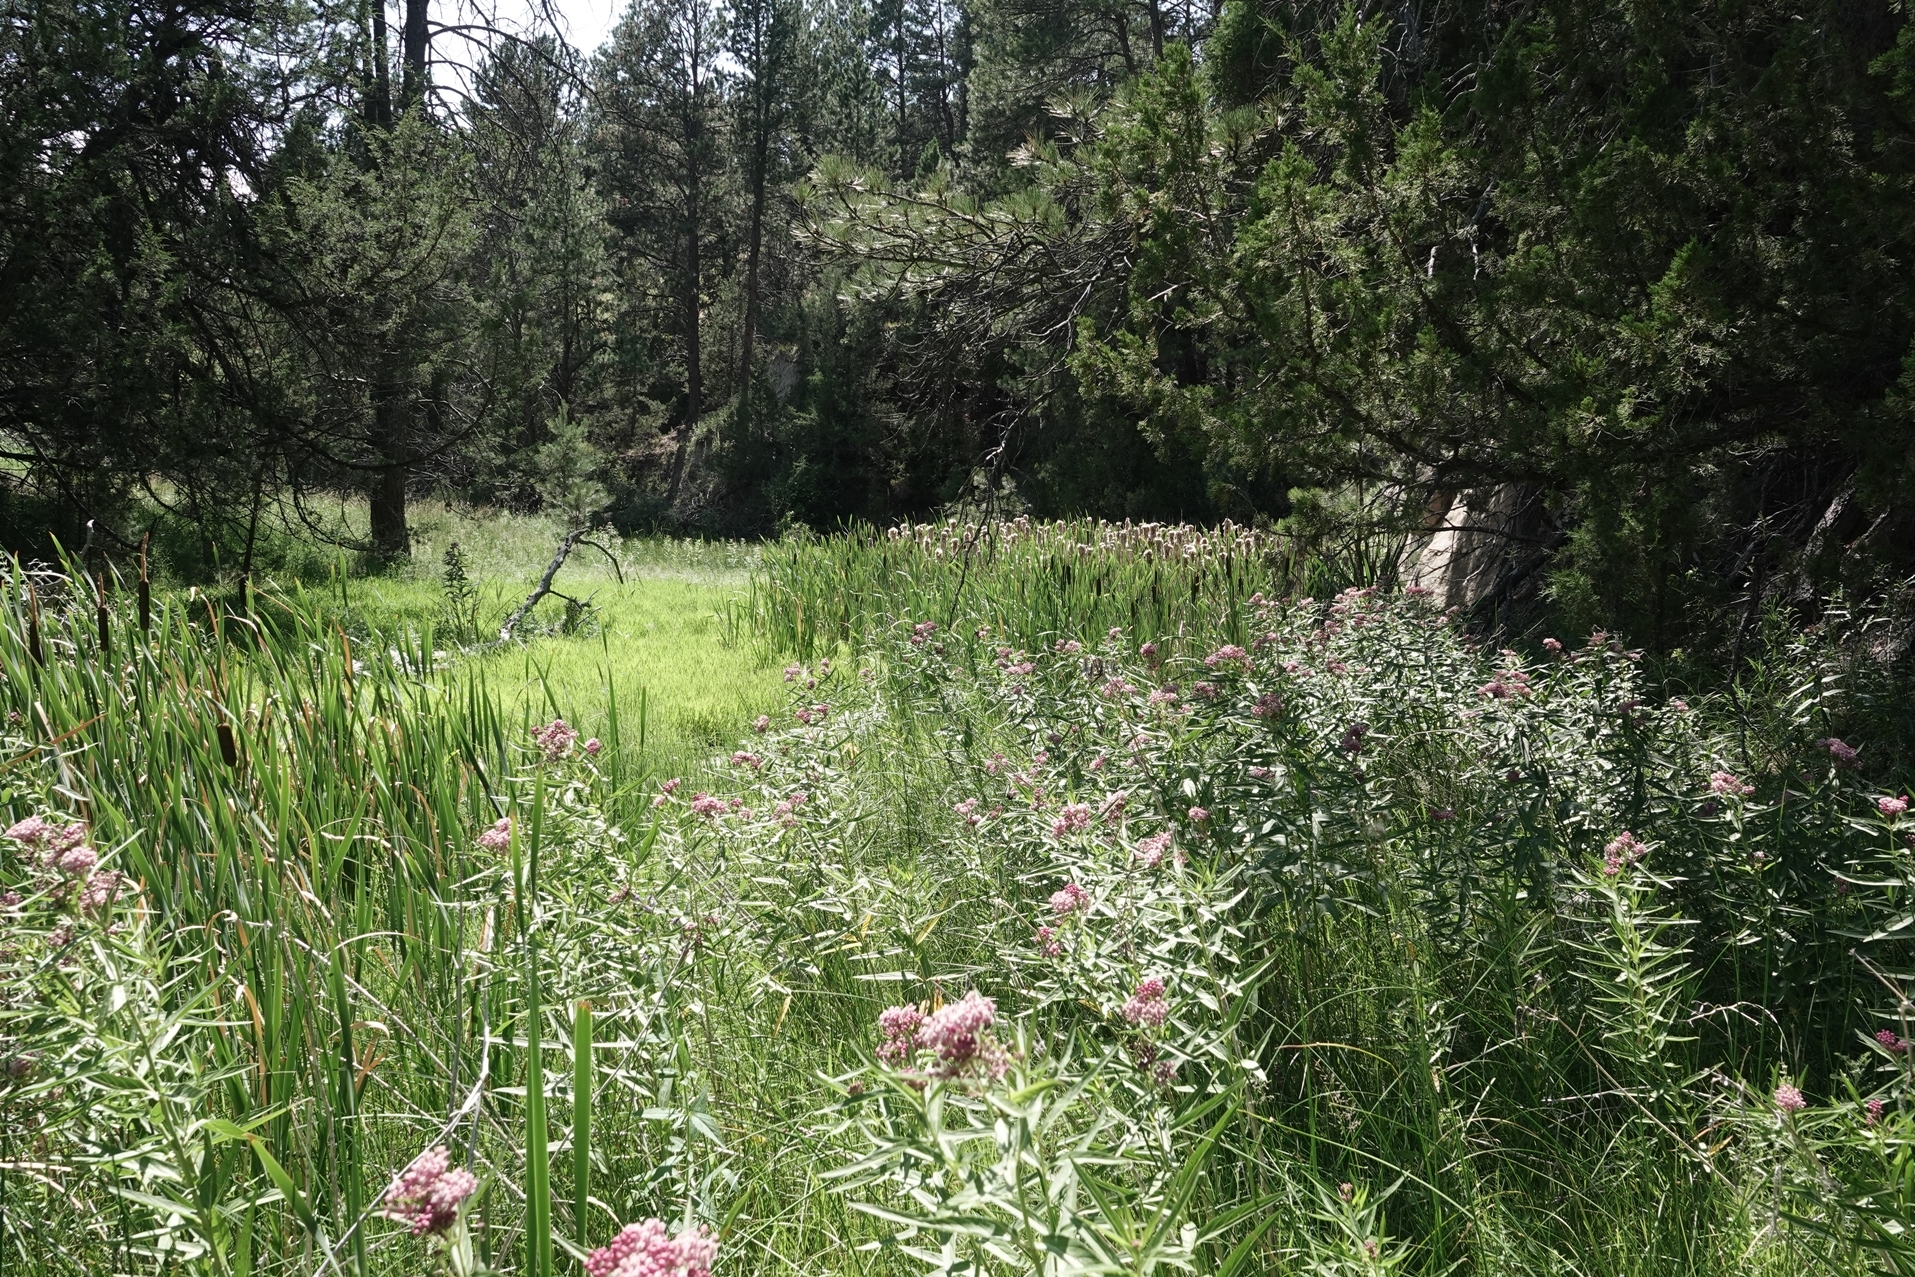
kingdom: Animalia
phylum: Arthropoda
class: Insecta
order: Lepidoptera
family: Nymphalidae
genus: Danaus
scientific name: Danaus plexippus
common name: Monarch
